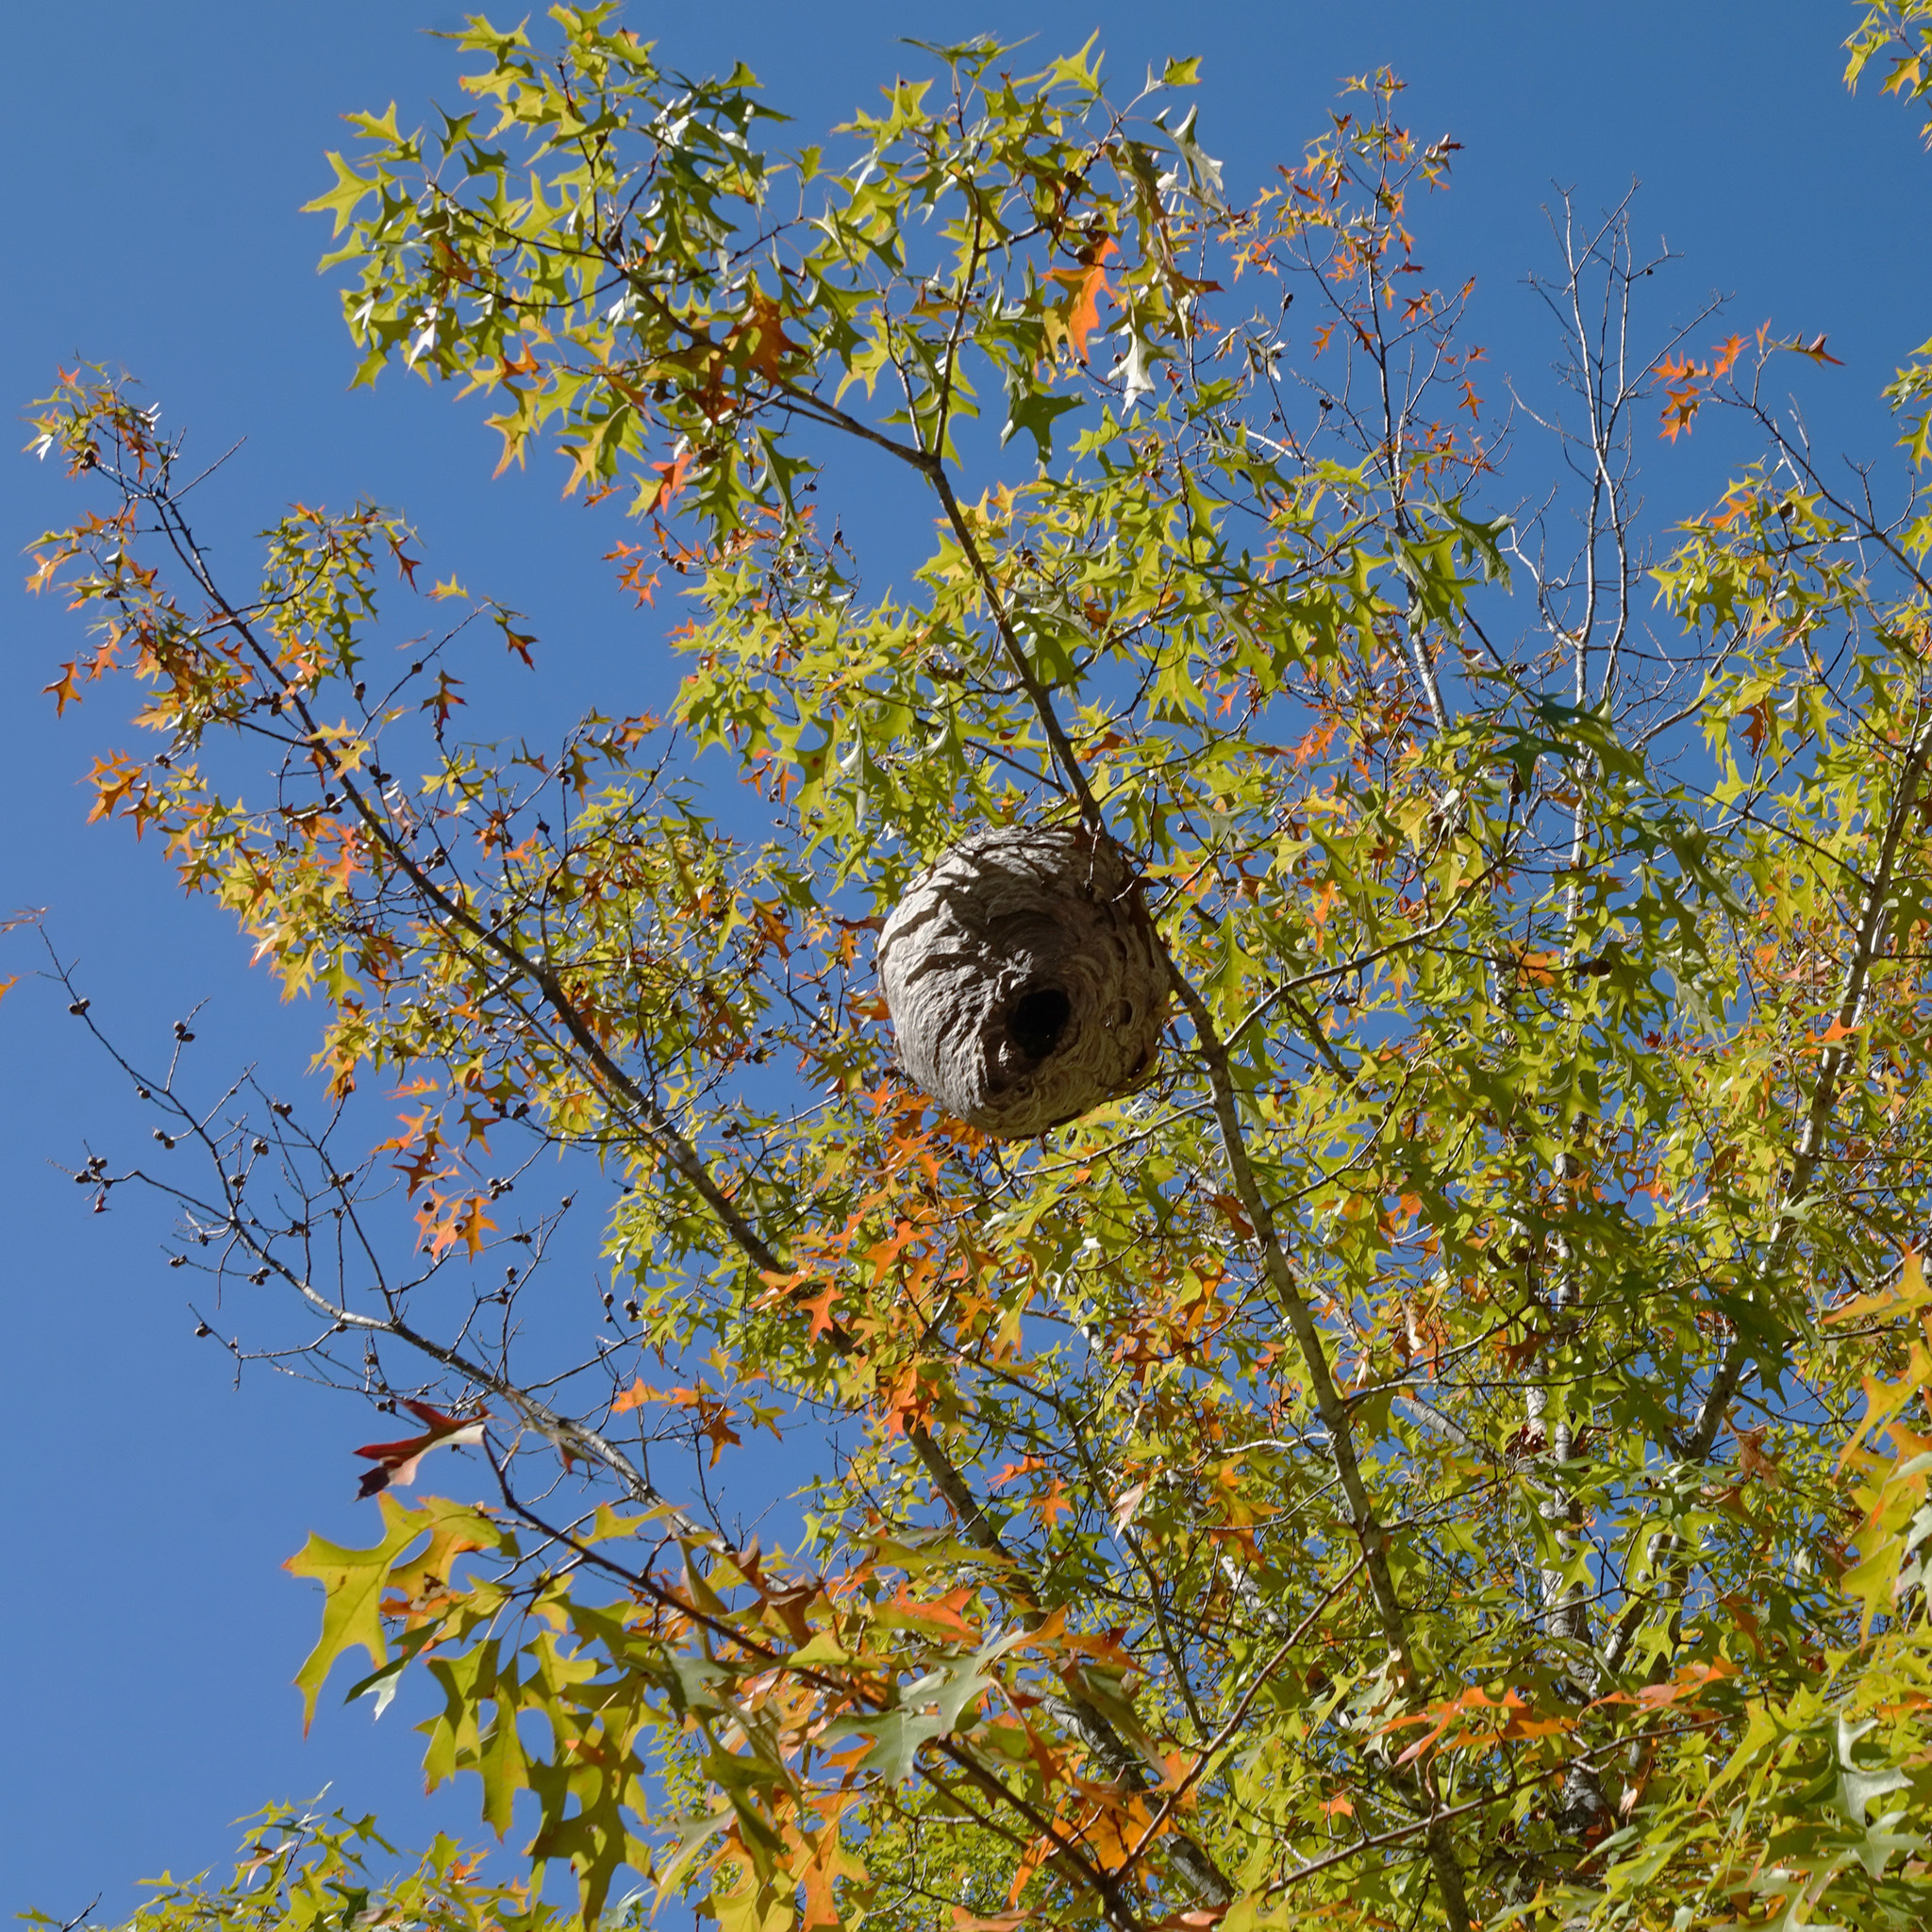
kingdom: Animalia
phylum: Arthropoda
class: Insecta
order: Hymenoptera
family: Vespidae
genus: Dolichovespula
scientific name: Dolichovespula maculata
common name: Bald-faced hornet
